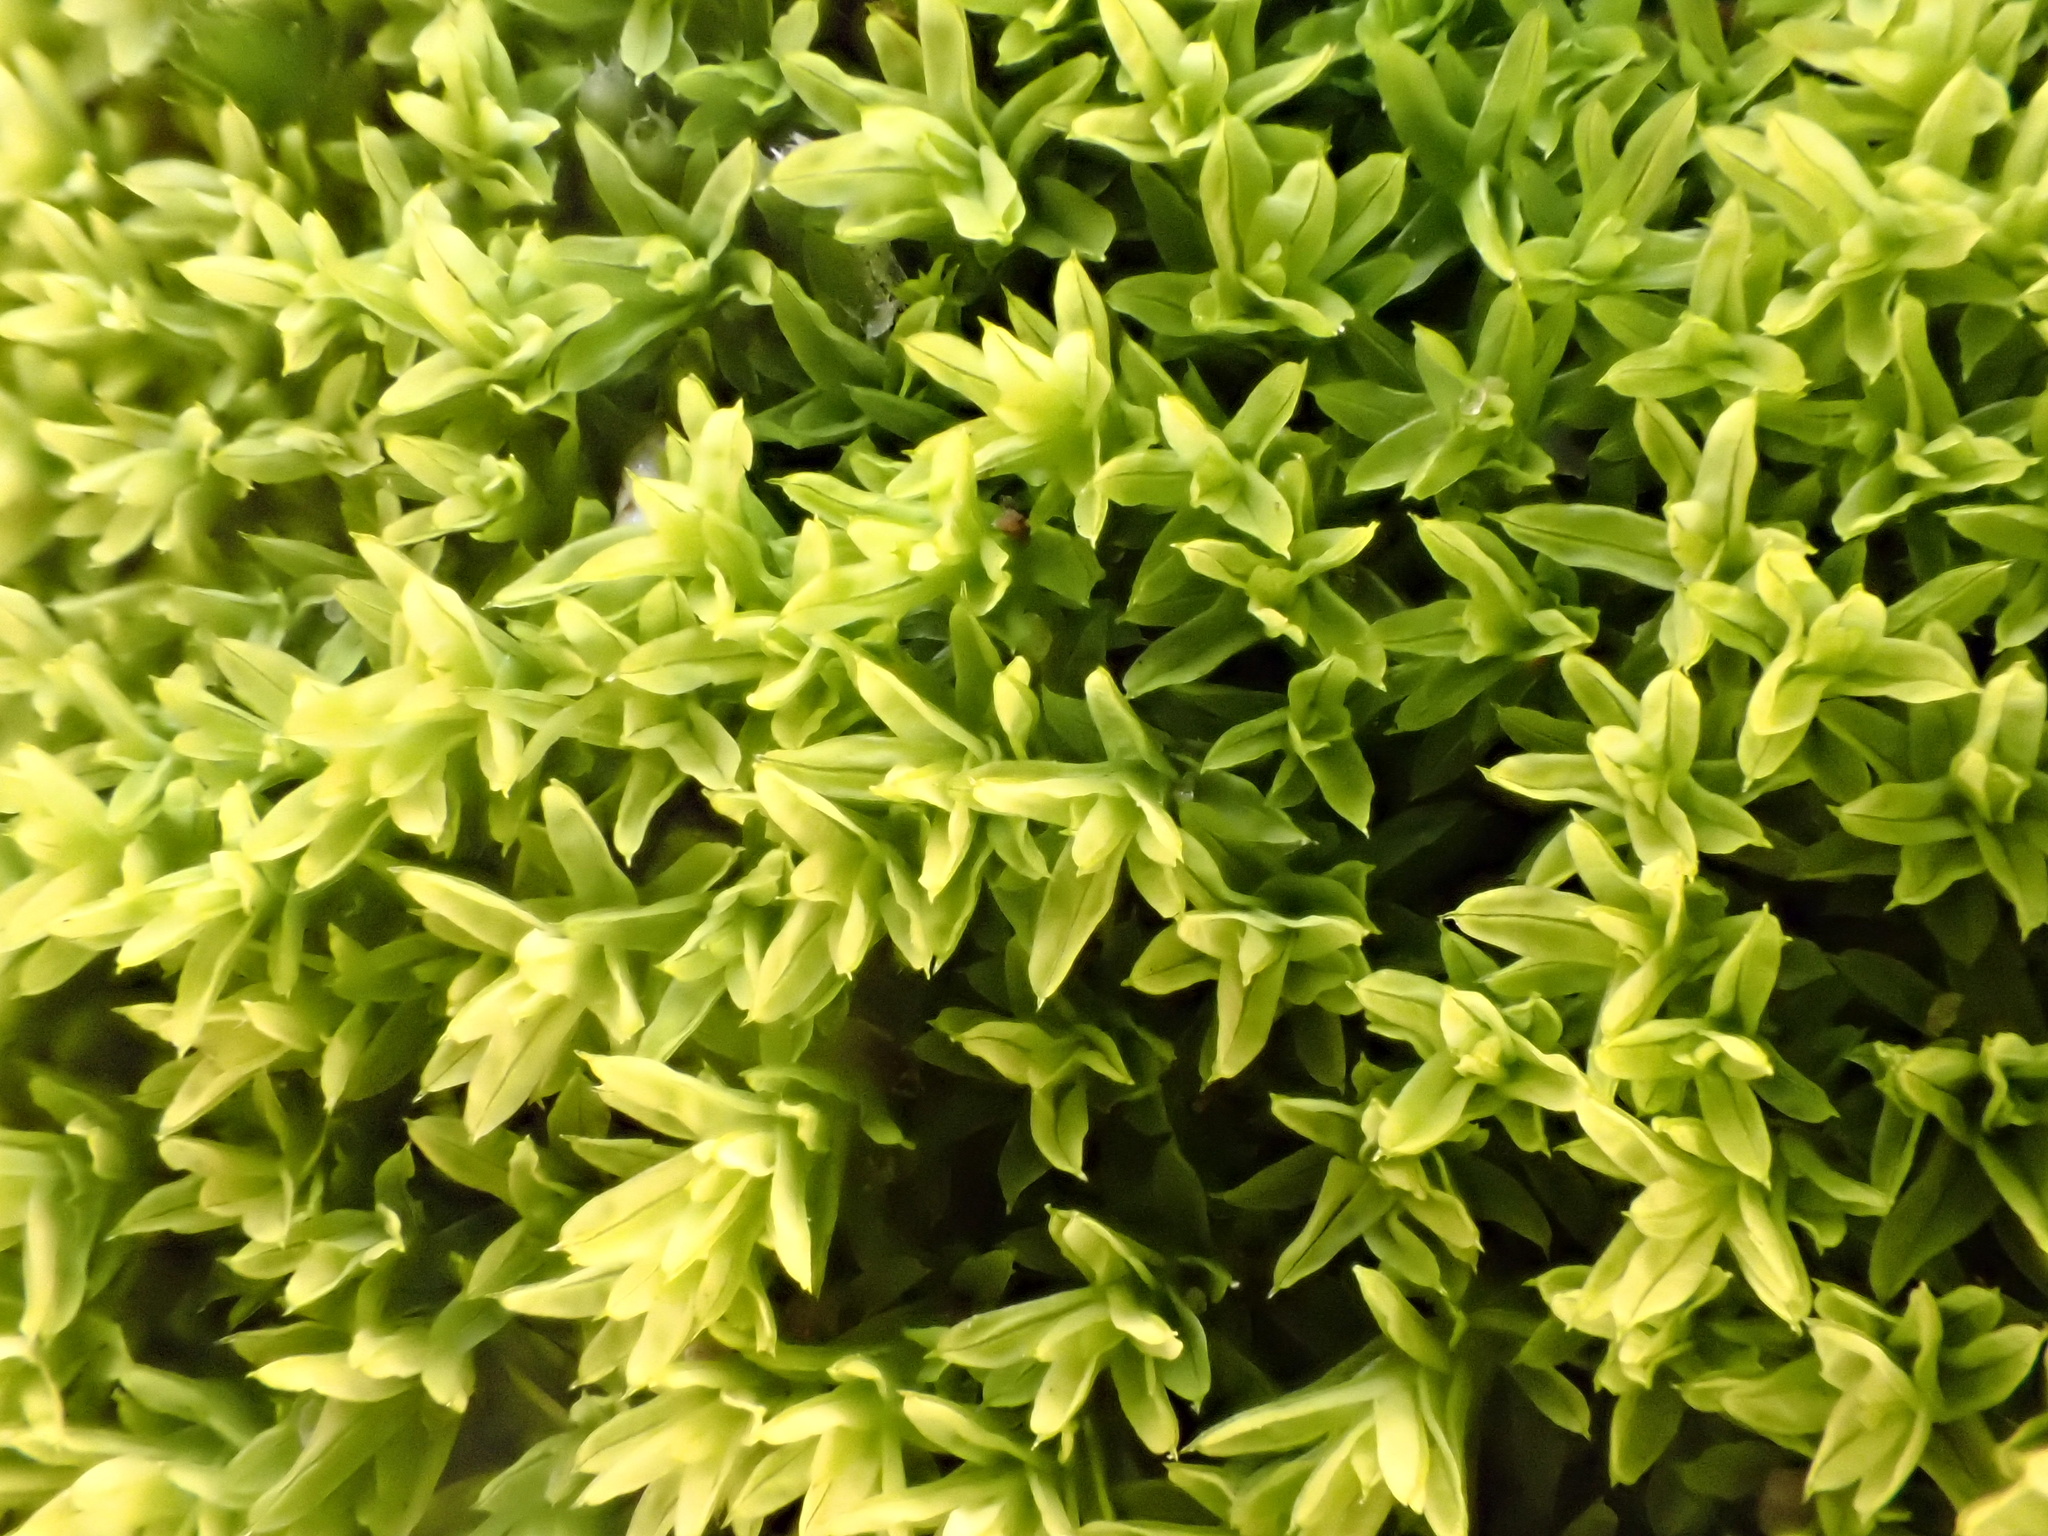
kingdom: Plantae
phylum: Bryophyta
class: Bryopsida
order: Pottiales
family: Pottiaceae
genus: Barbula
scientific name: Barbula unguiculata
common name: Prickly beard moss
